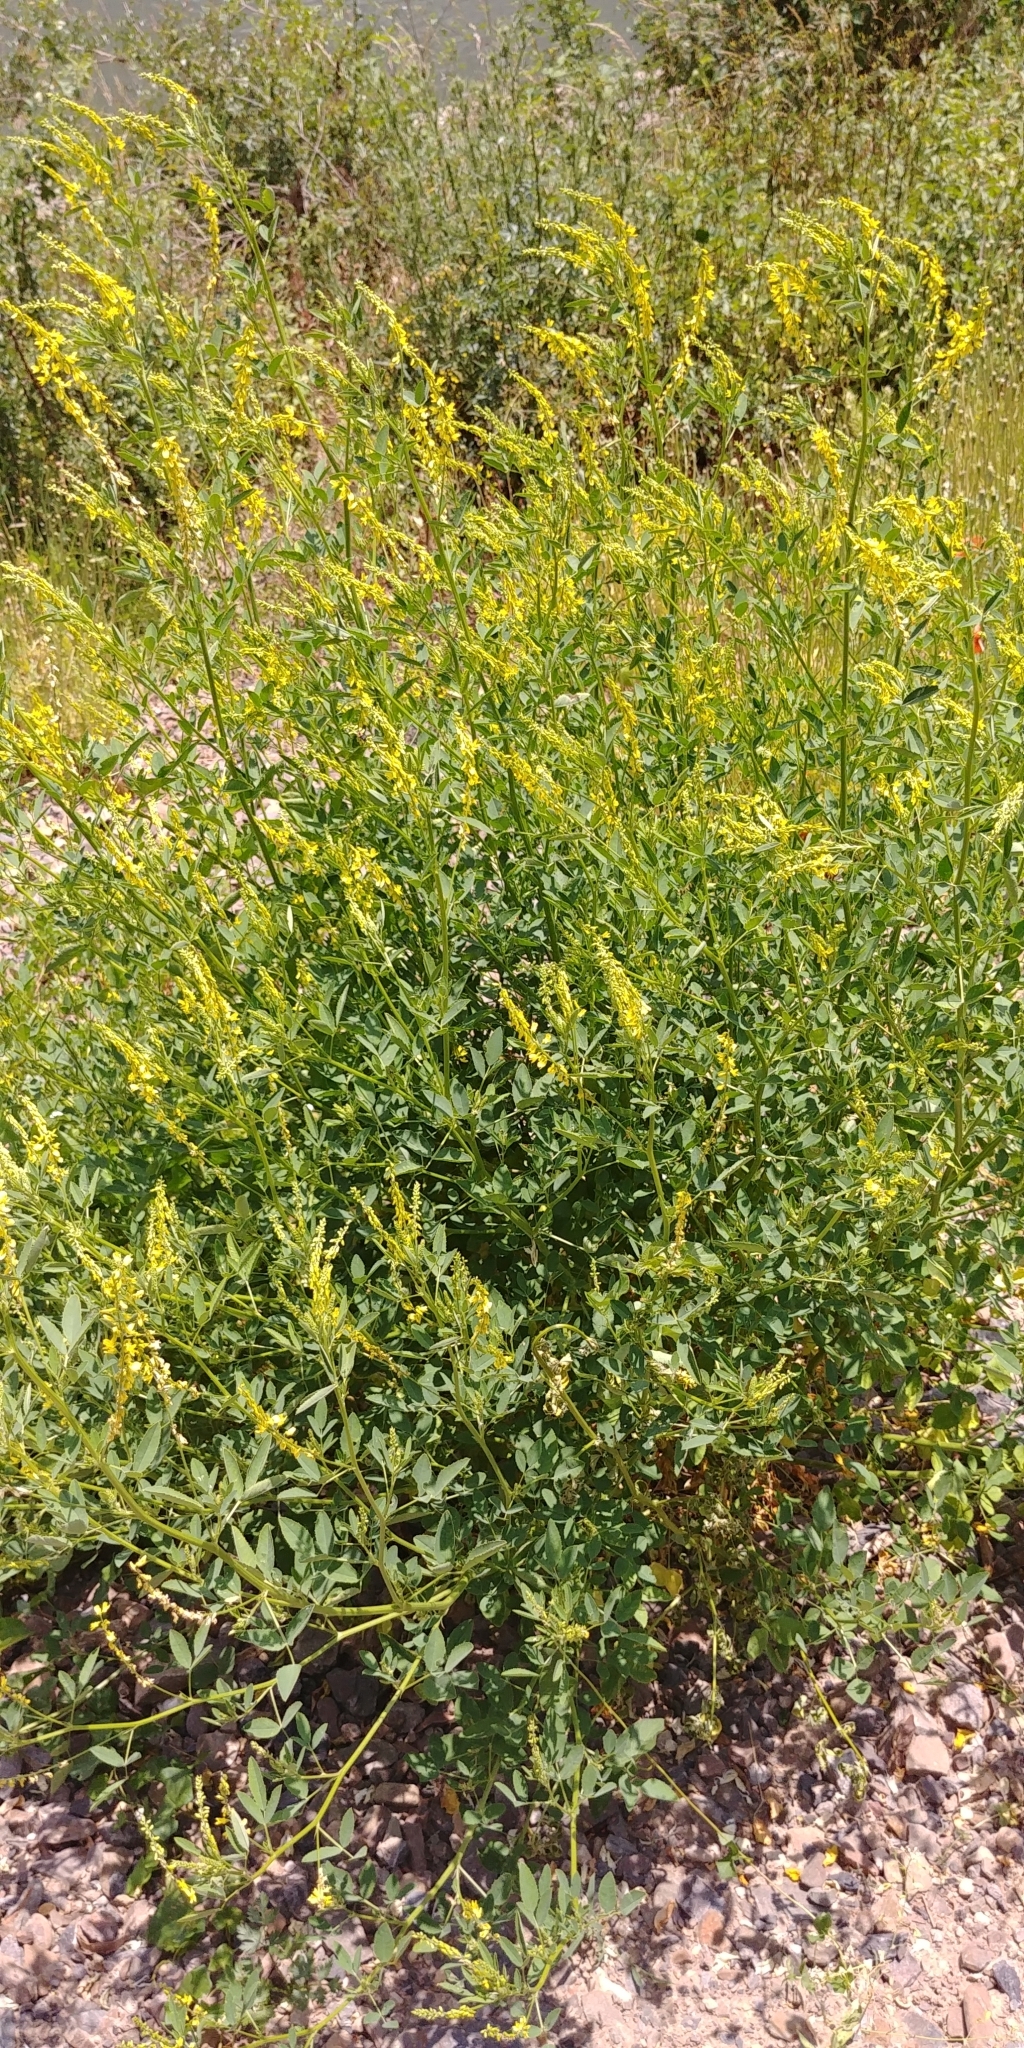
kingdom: Plantae
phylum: Tracheophyta
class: Magnoliopsida
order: Fabales
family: Fabaceae
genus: Melilotus
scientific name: Melilotus officinalis
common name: Sweetclover
